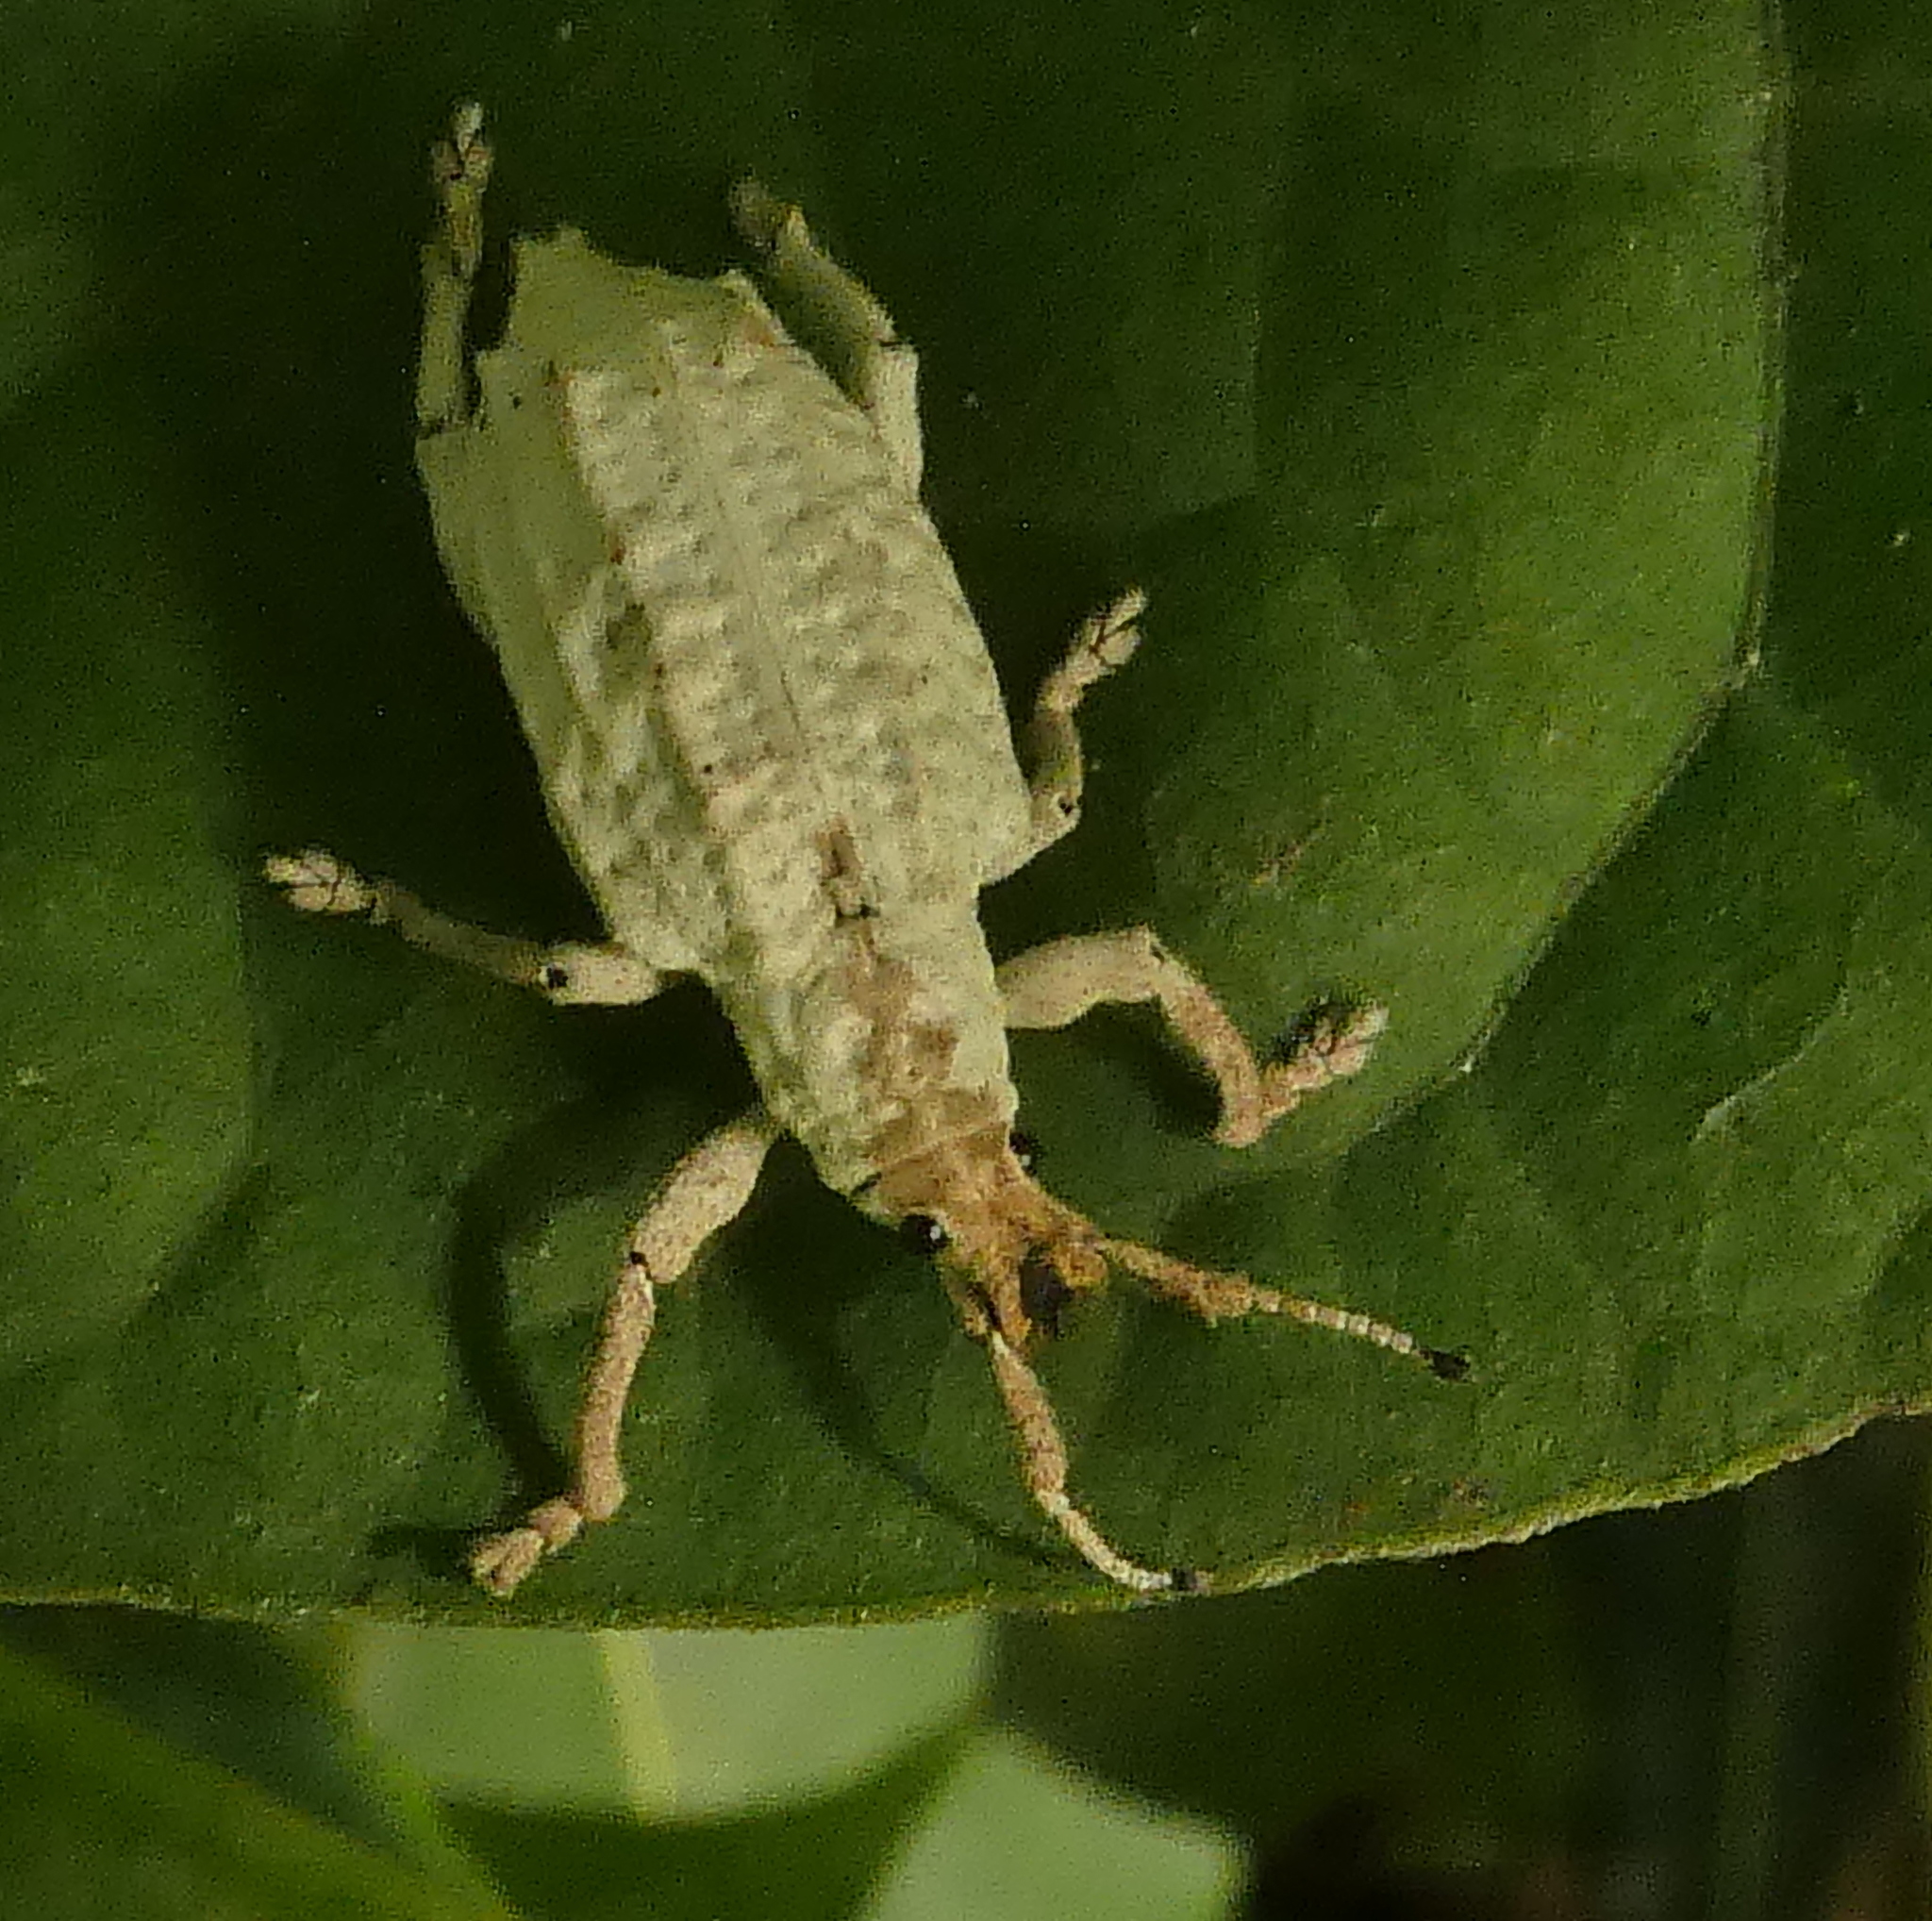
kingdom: Animalia
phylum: Arthropoda
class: Insecta
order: Coleoptera
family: Curculionidae
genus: Compsus
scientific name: Compsus niveus
